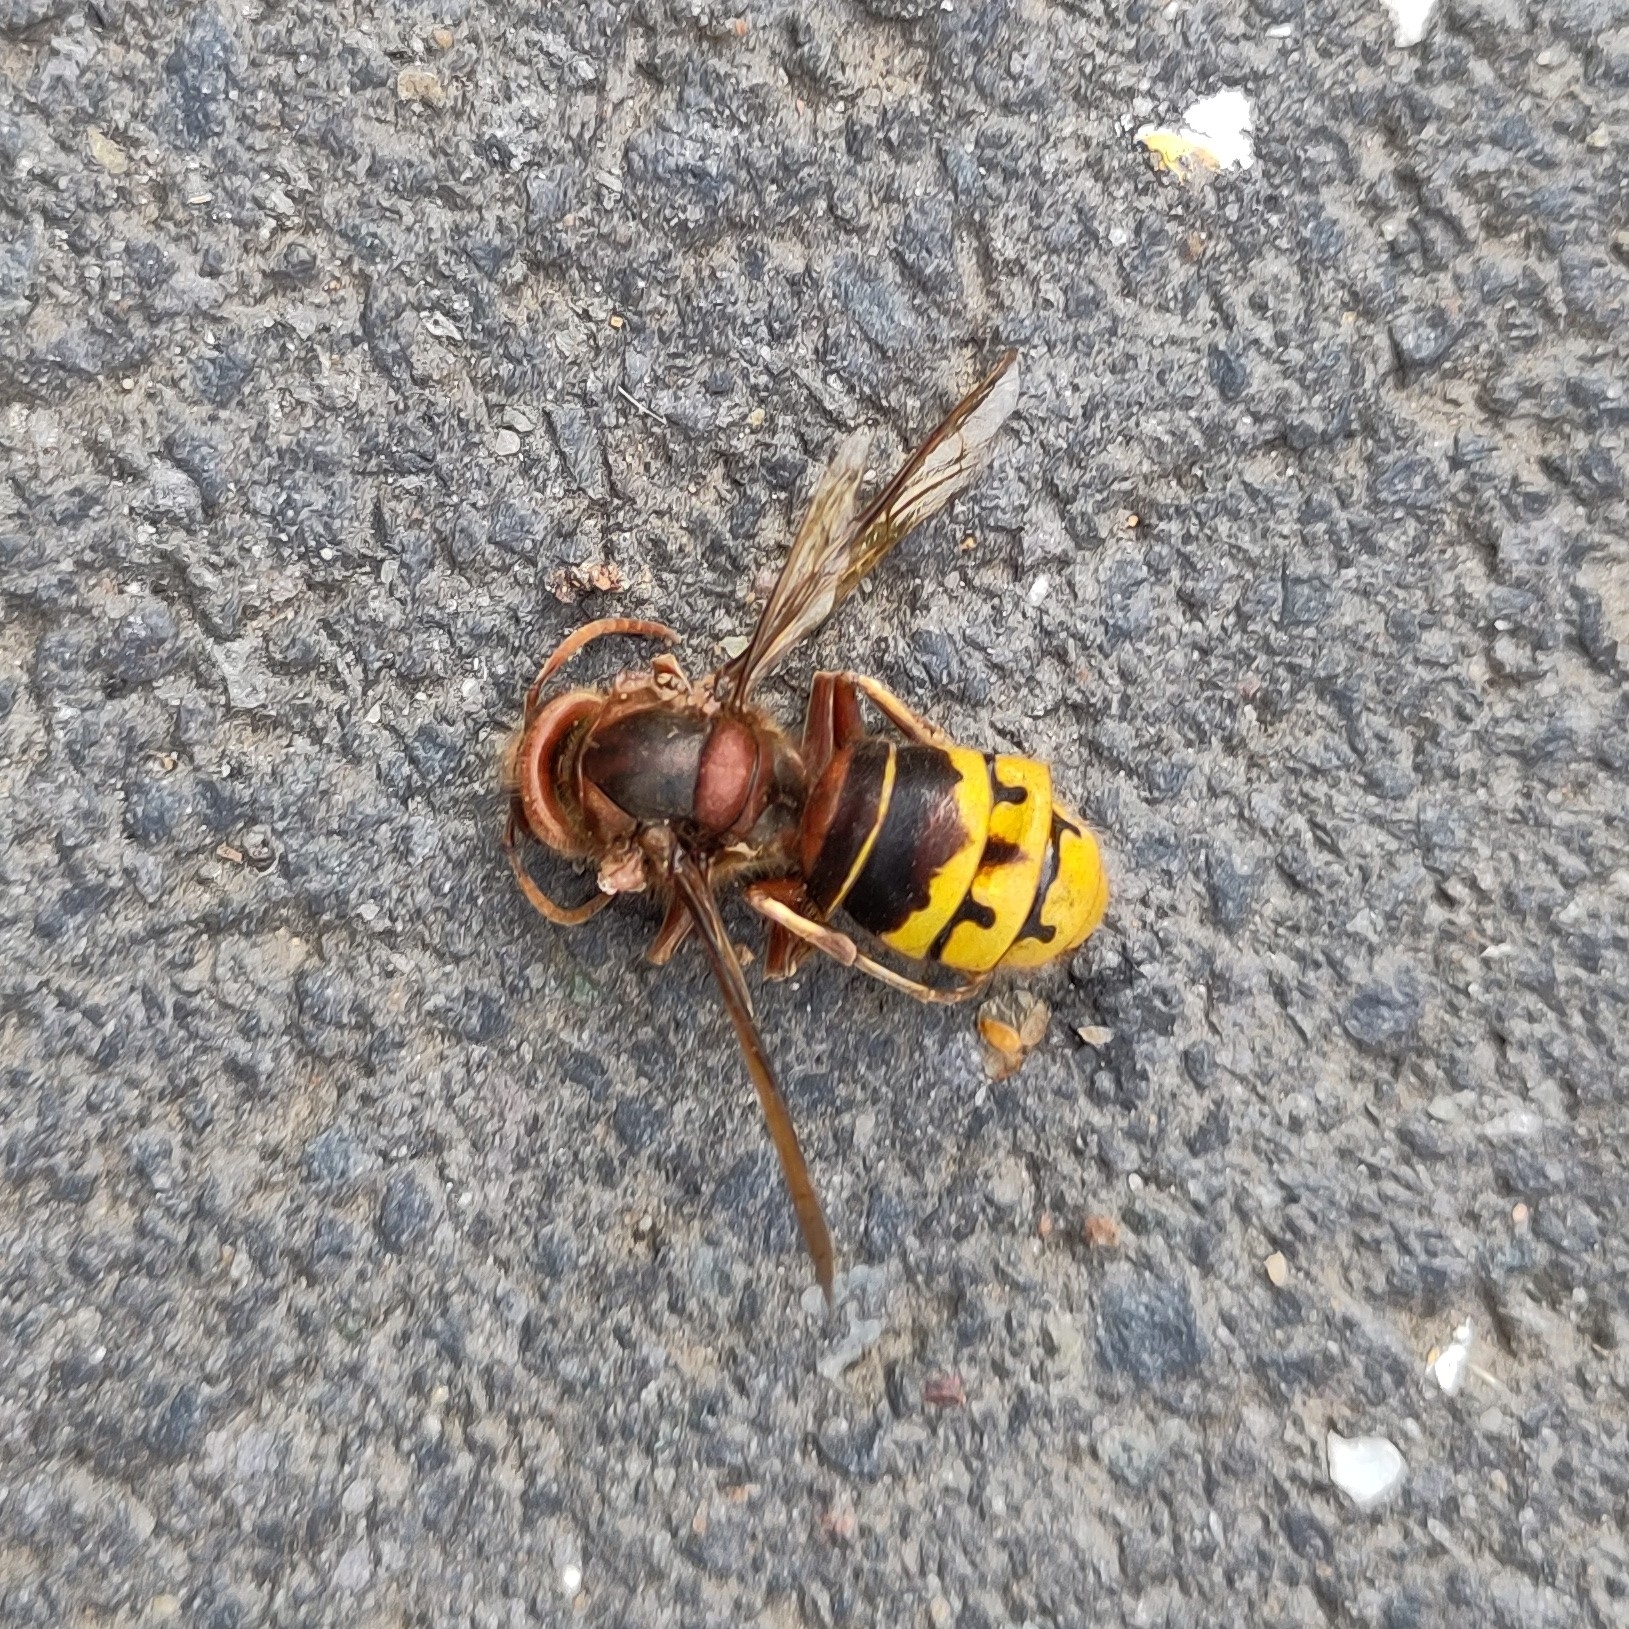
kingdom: Animalia
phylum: Arthropoda
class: Insecta
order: Hymenoptera
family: Vespidae
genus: Vespa
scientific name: Vespa crabro
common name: Hornet
